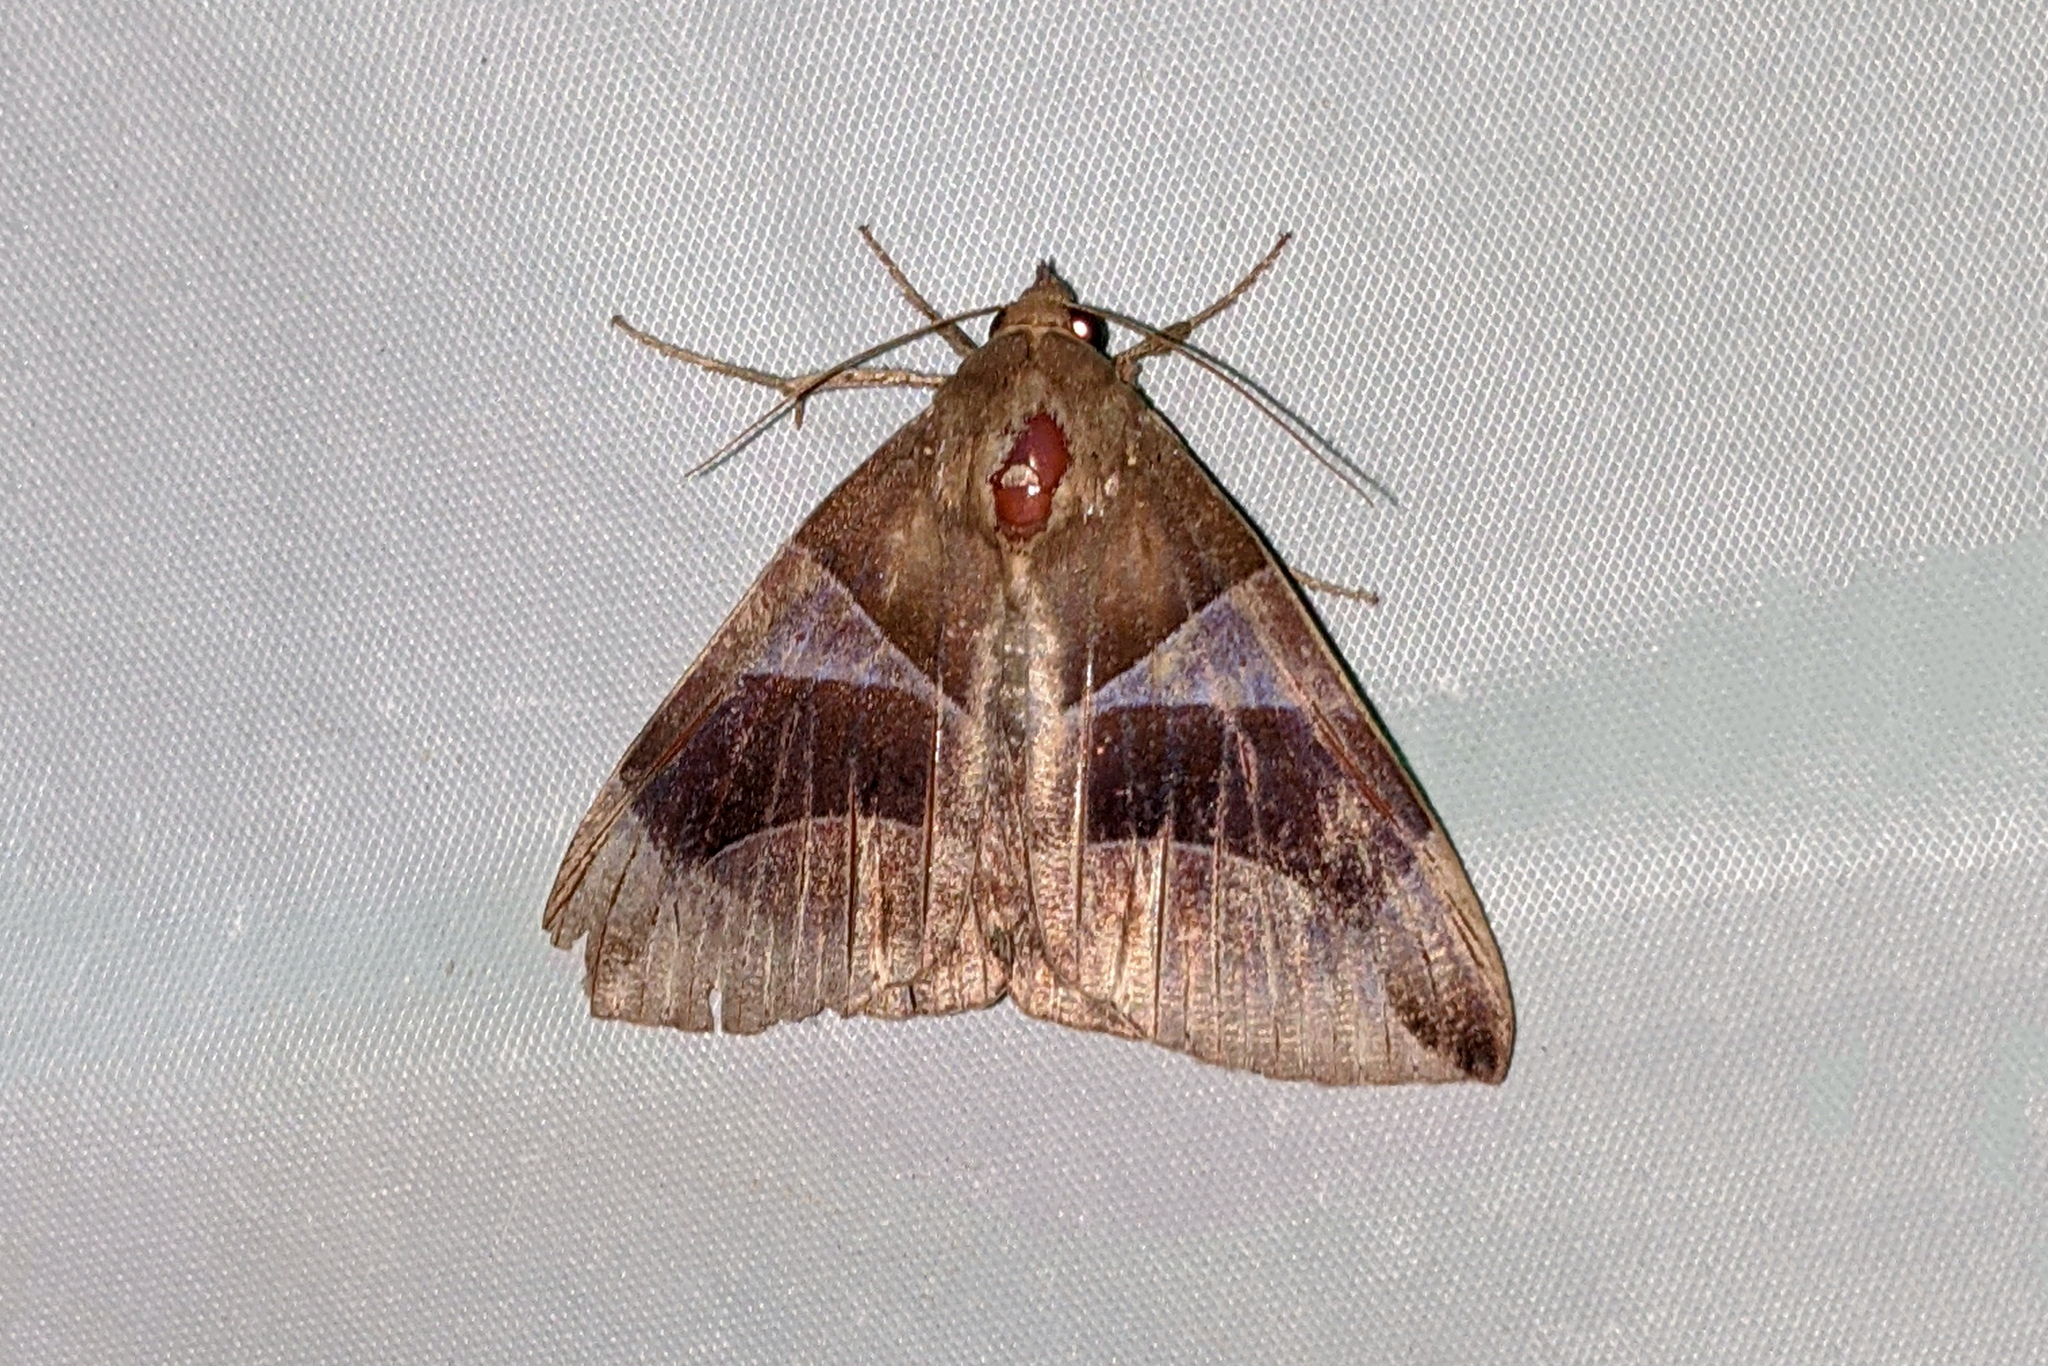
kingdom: Animalia
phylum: Arthropoda
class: Insecta
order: Lepidoptera
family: Erebidae
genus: Dysgonia
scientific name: Dysgonia purpurata
